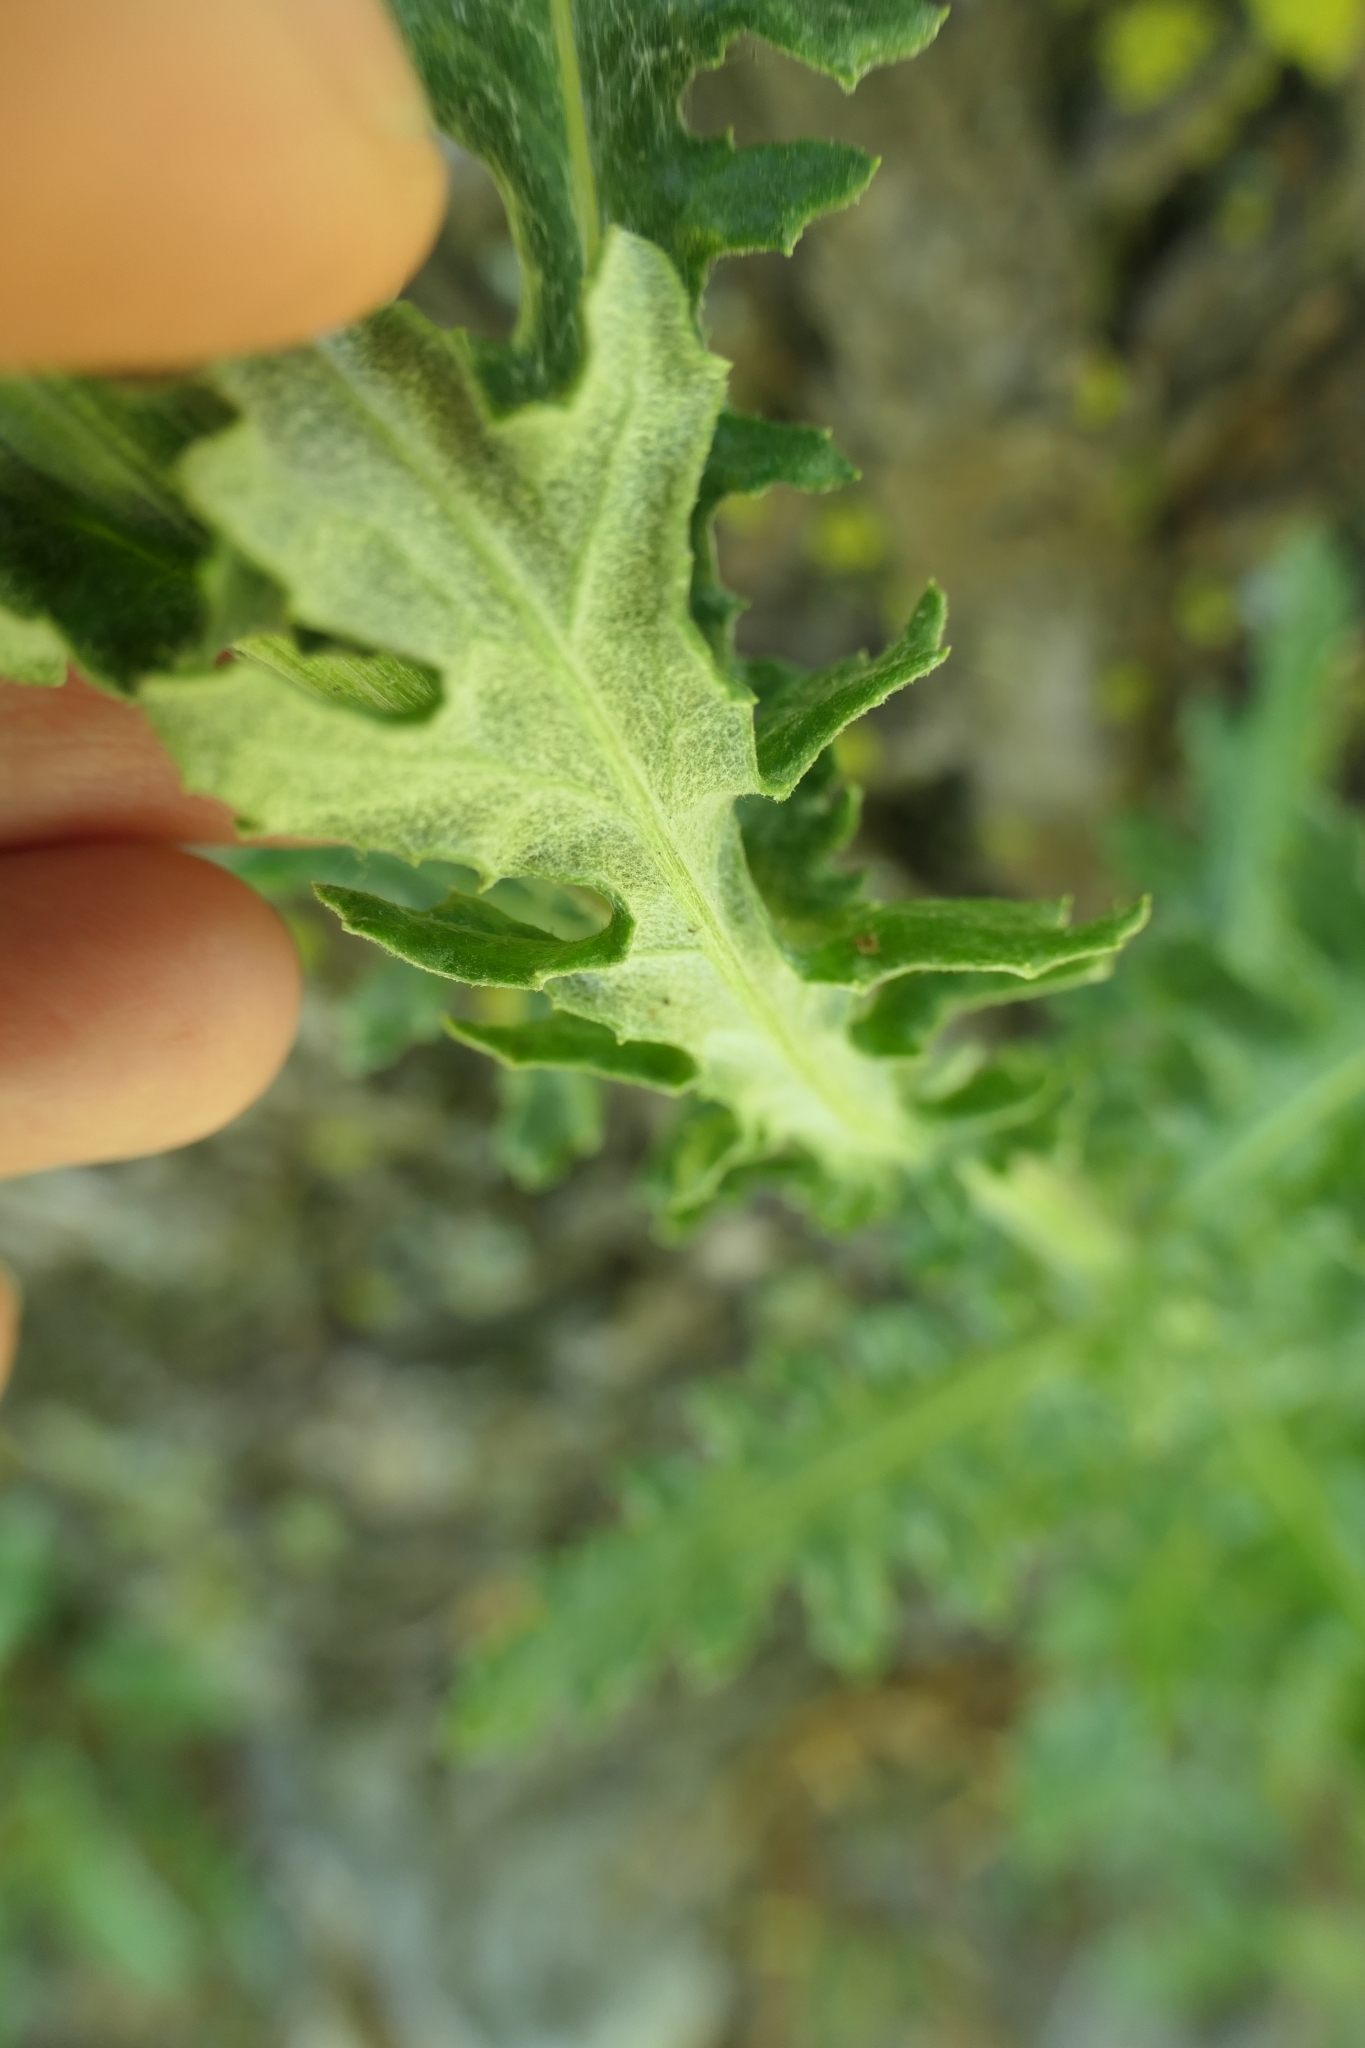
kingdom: Plantae
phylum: Tracheophyta
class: Magnoliopsida
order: Asterales
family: Asteraceae
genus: Senecio
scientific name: Senecio glomeratus
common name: Cutleaf burnweed
